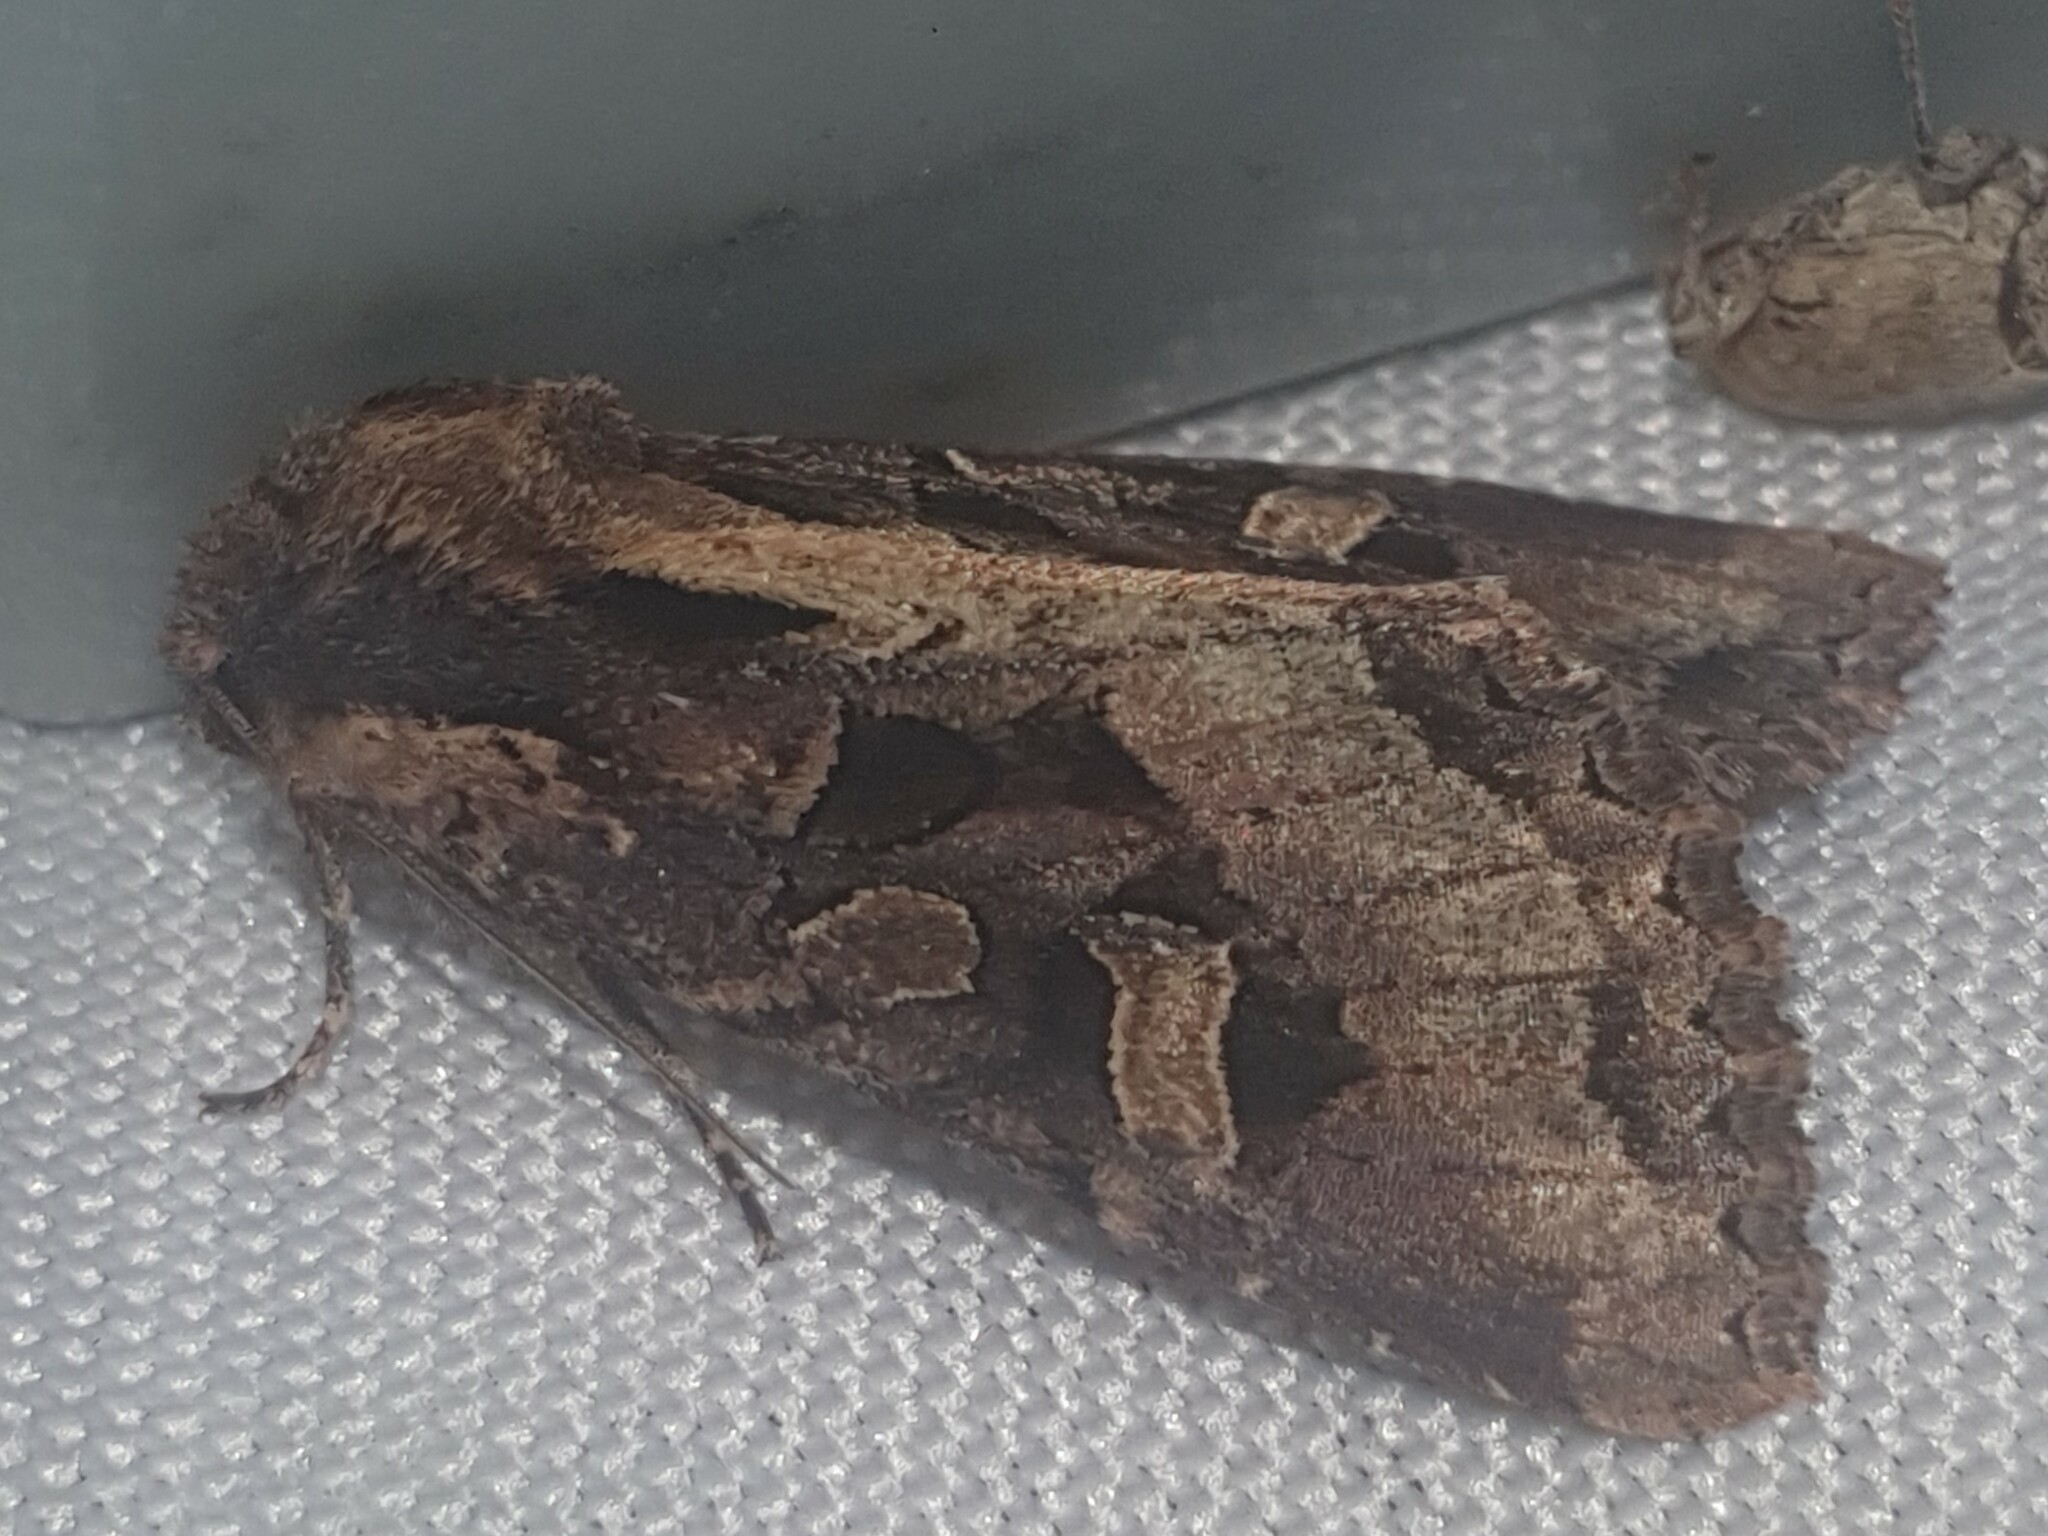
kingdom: Animalia
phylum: Arthropoda
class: Insecta
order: Lepidoptera
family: Noctuidae
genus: Trigonophora
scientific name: Trigonophora jodea
